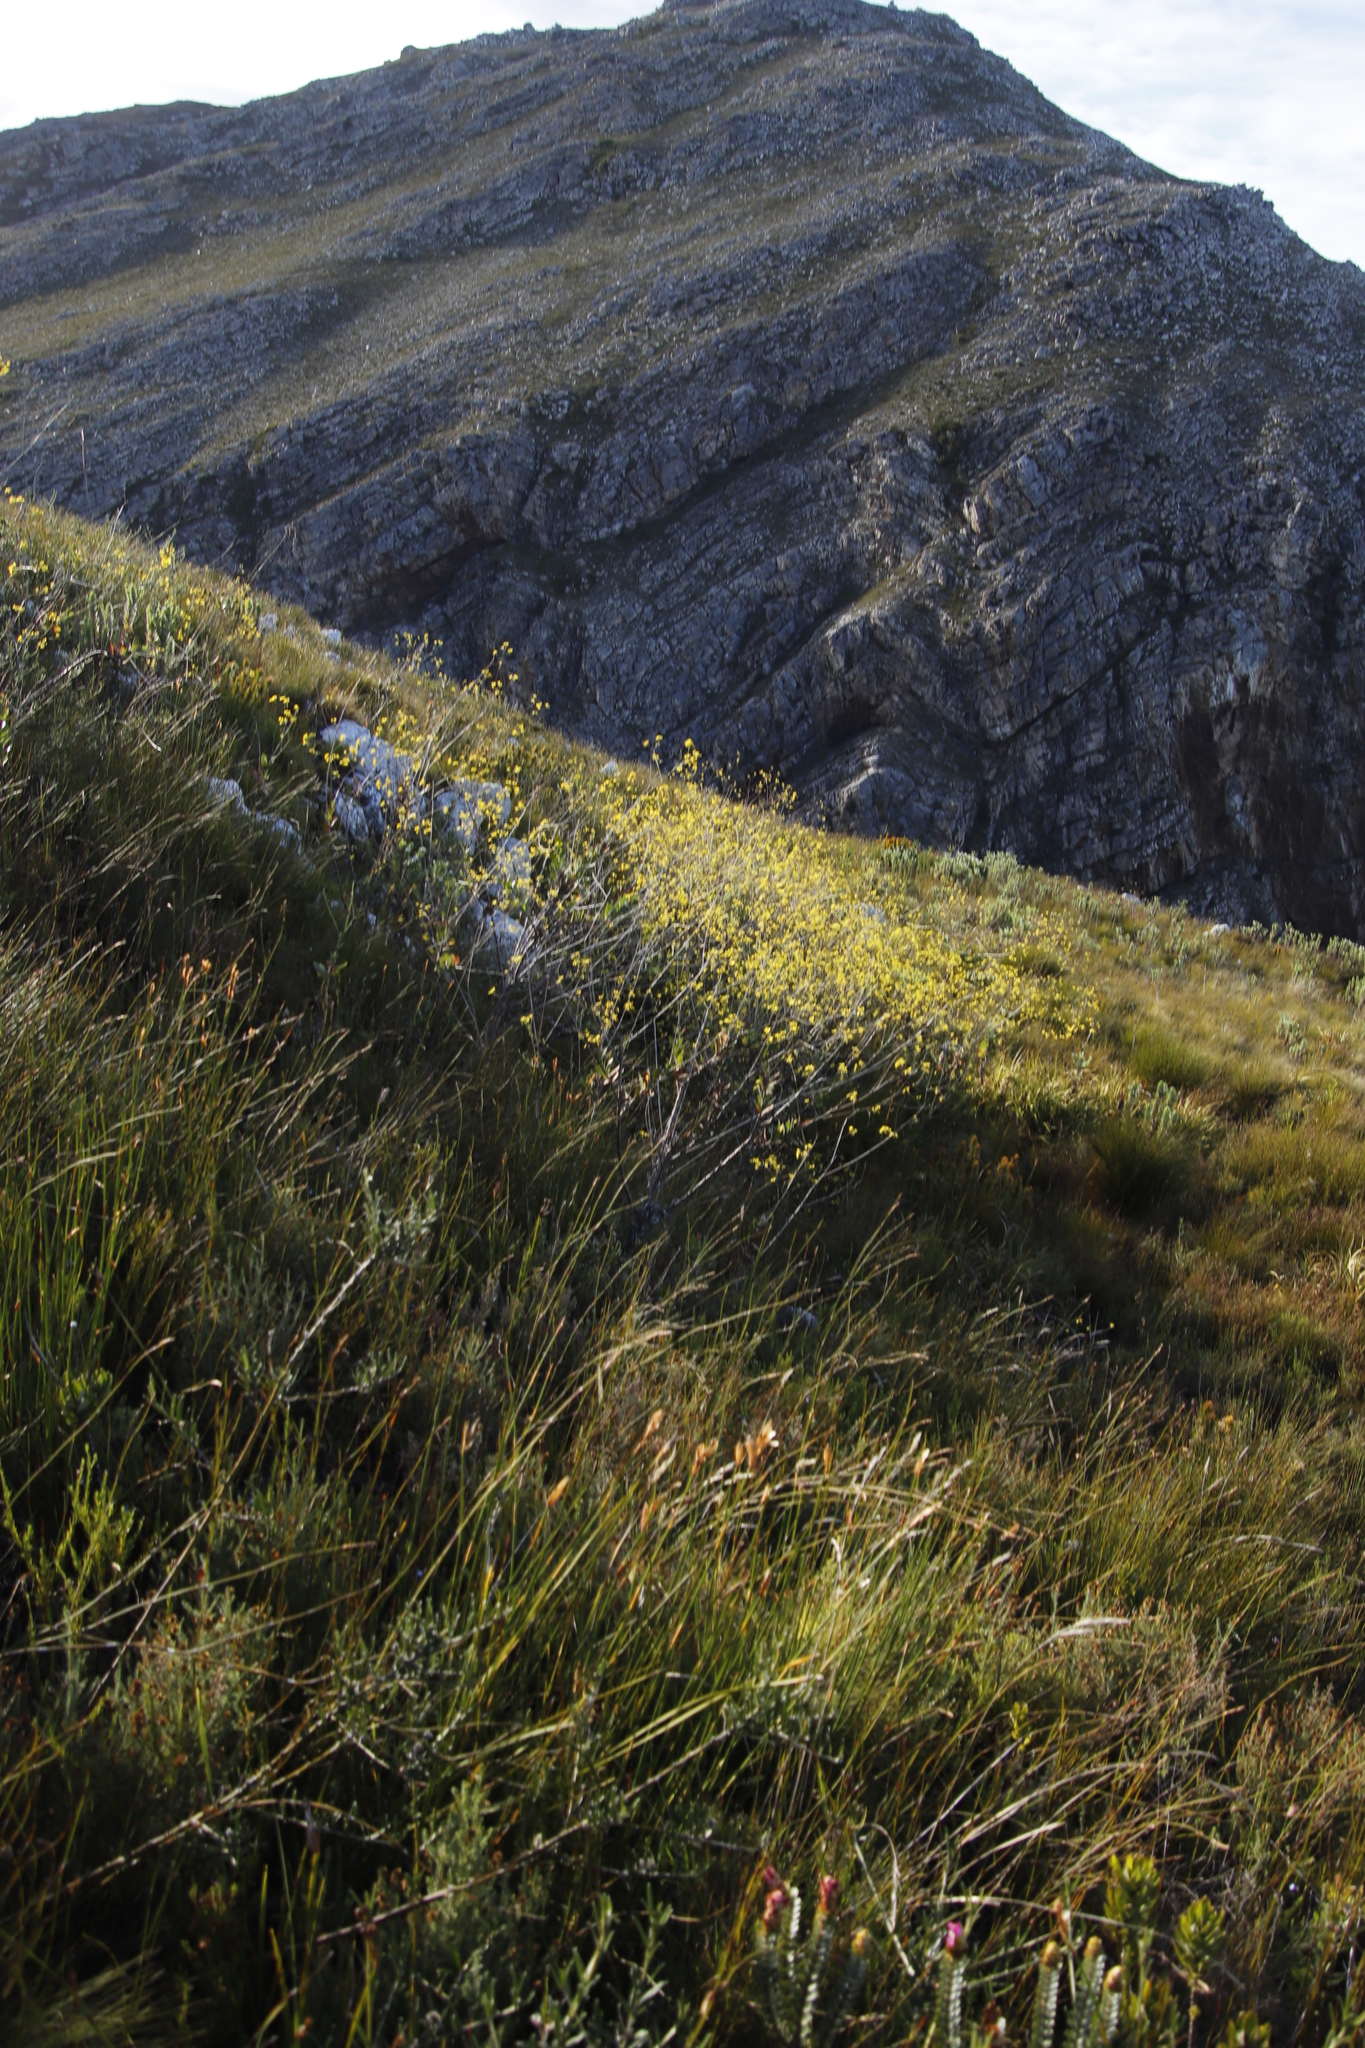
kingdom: Plantae
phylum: Tracheophyta
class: Magnoliopsida
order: Asterales
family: Asteraceae
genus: Othonna
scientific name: Othonna quinquedentata
